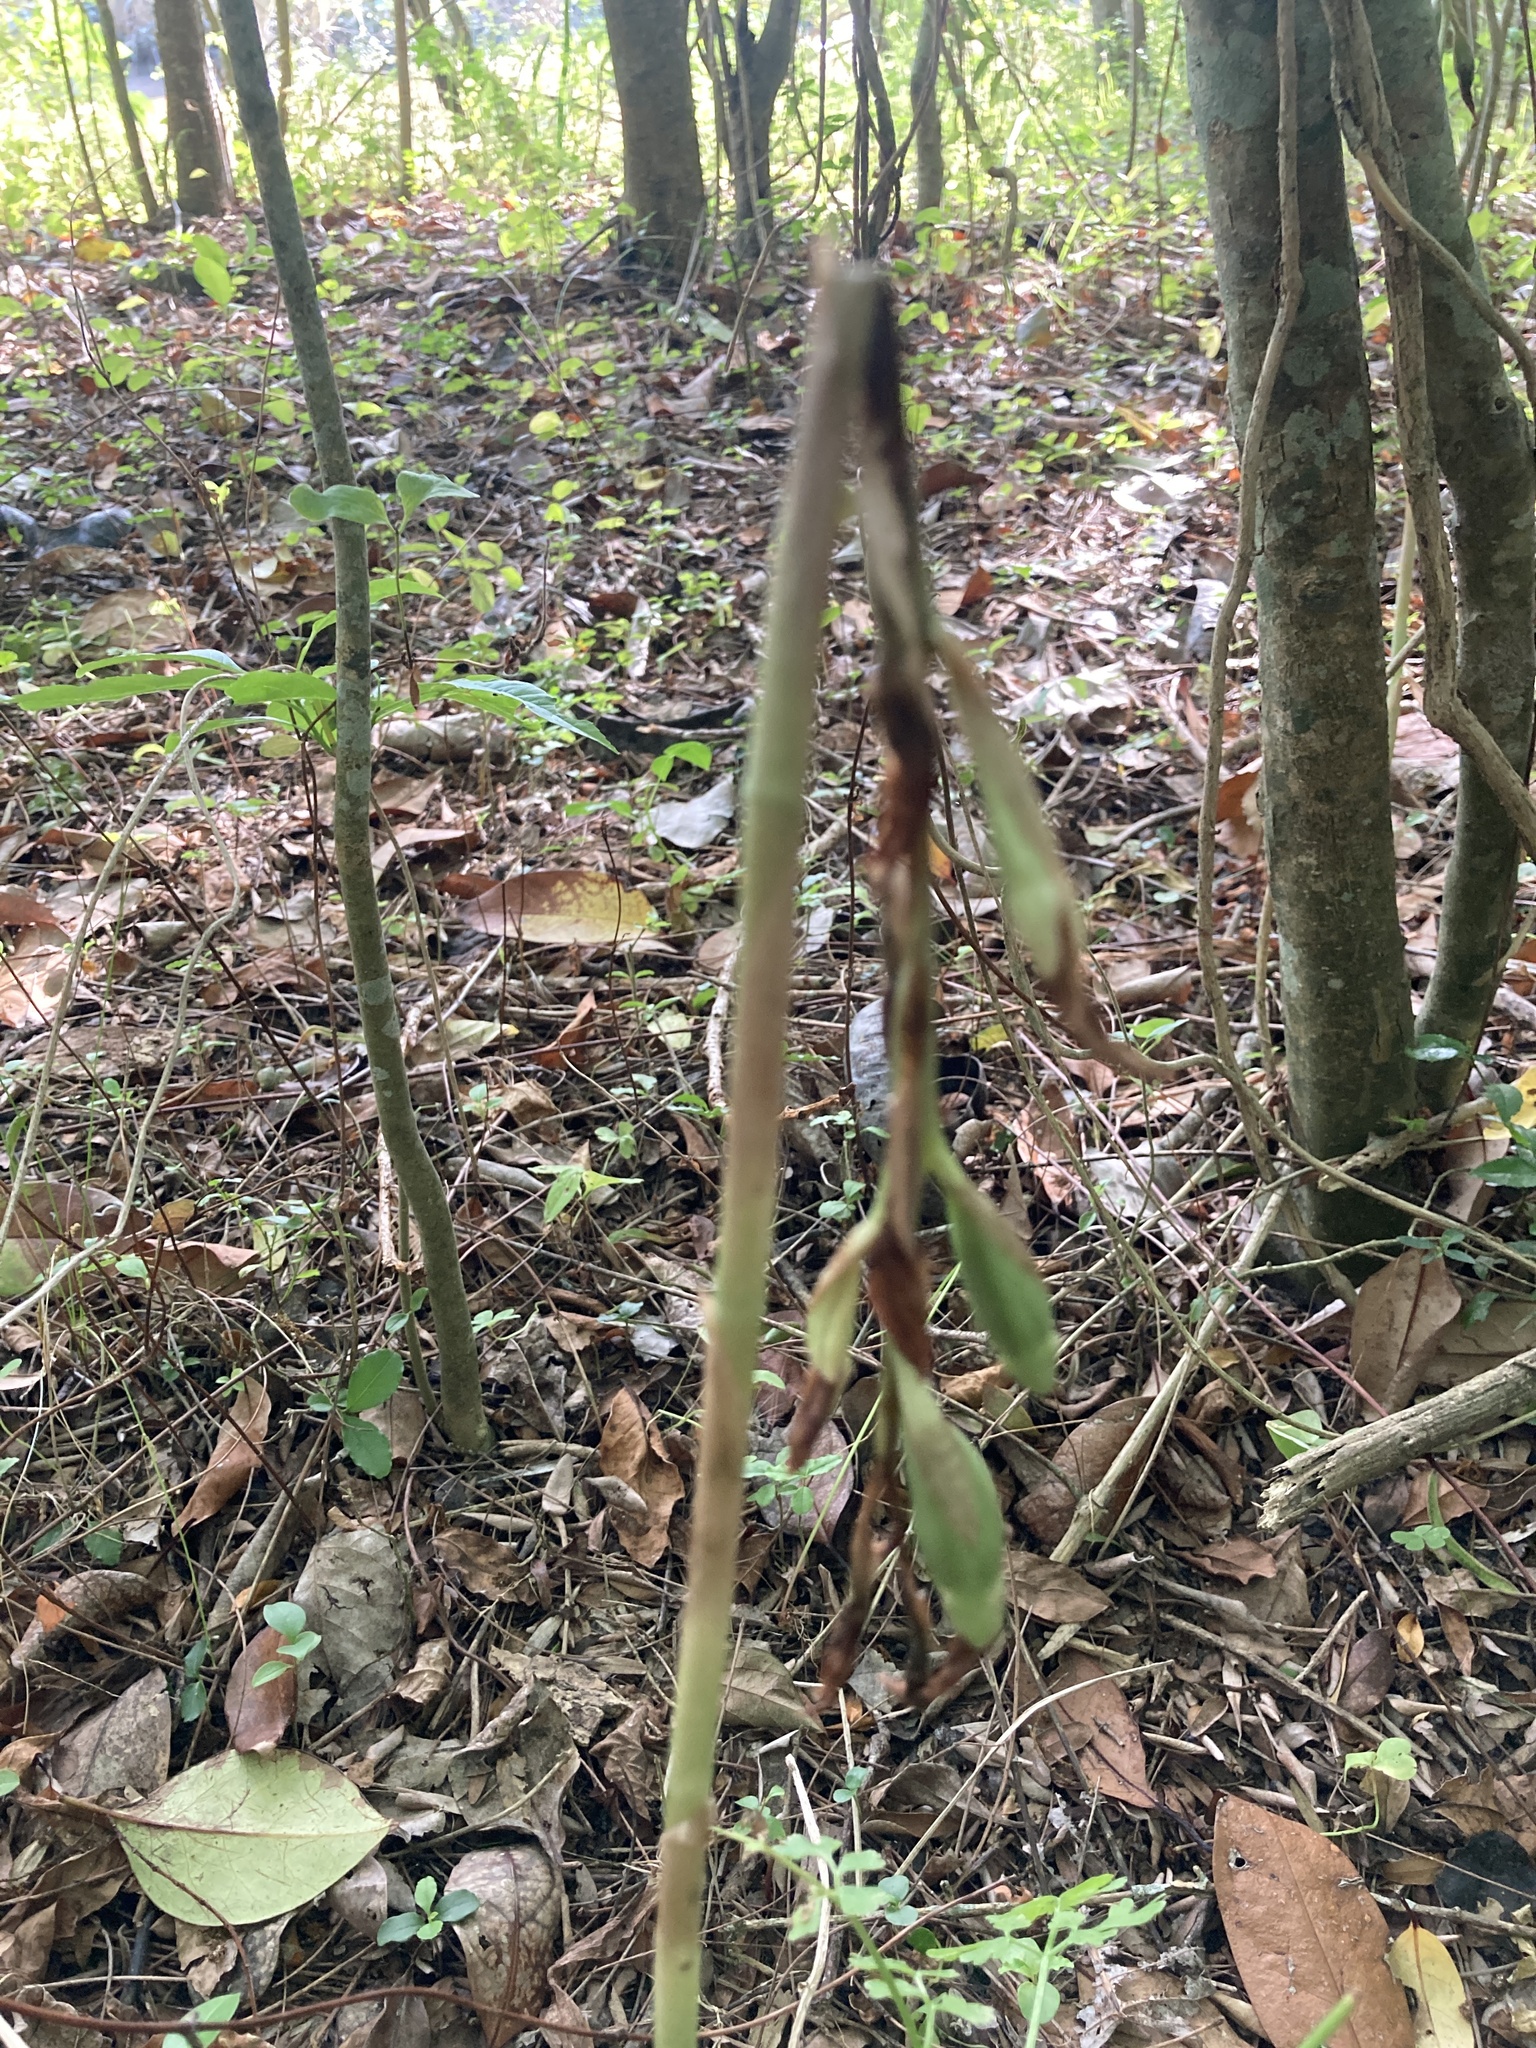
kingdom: Plantae
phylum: Tracheophyta
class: Liliopsida
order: Asparagales
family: Orchidaceae
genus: Chloraea
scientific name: Chloraea membranacea
